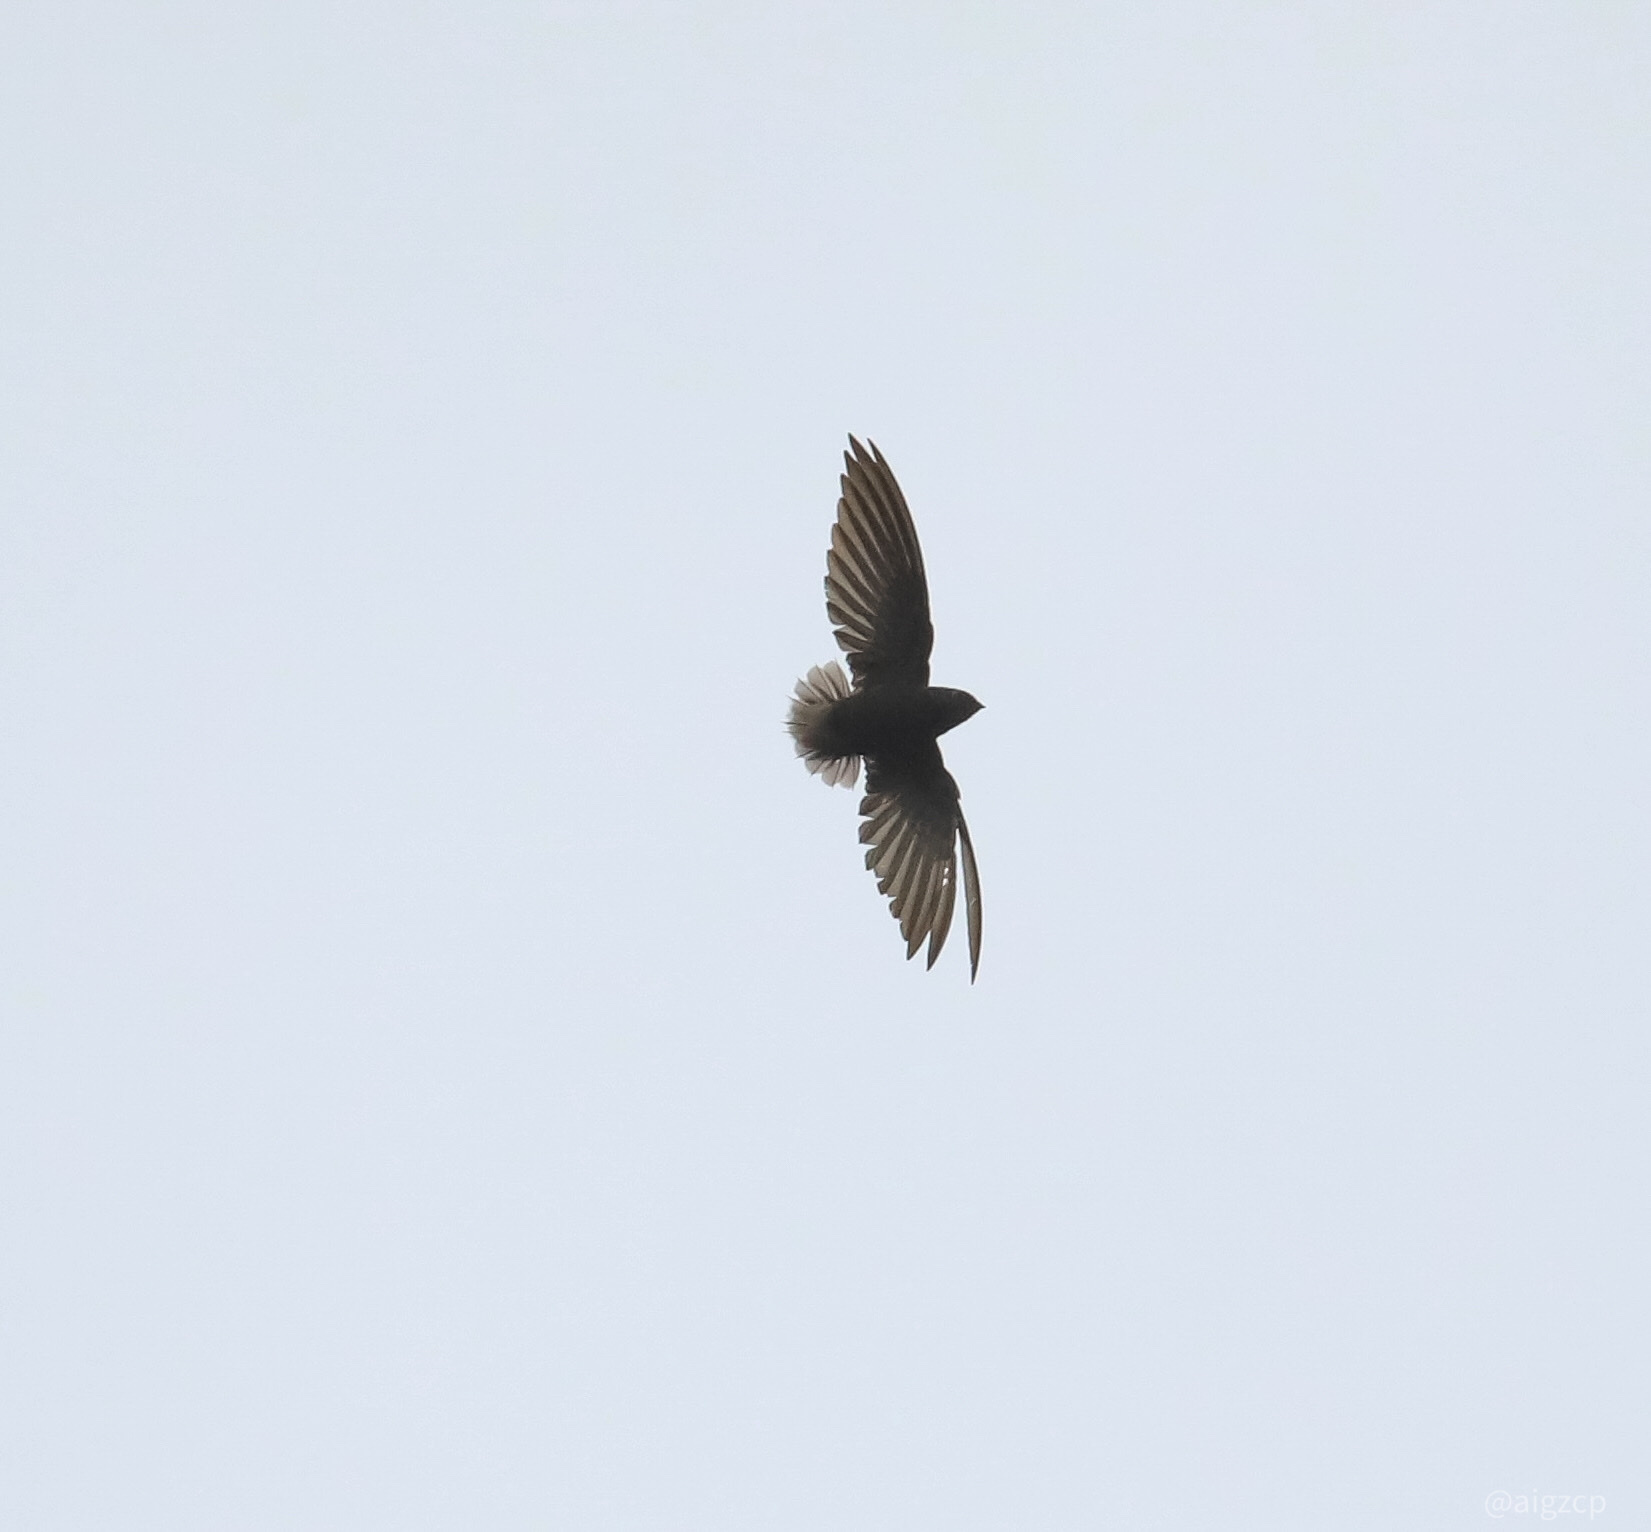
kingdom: Animalia
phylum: Chordata
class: Aves
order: Apodiformes
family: Apodidae
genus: Chaetura
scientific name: Chaetura brachyura
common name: Short-tailed swift
